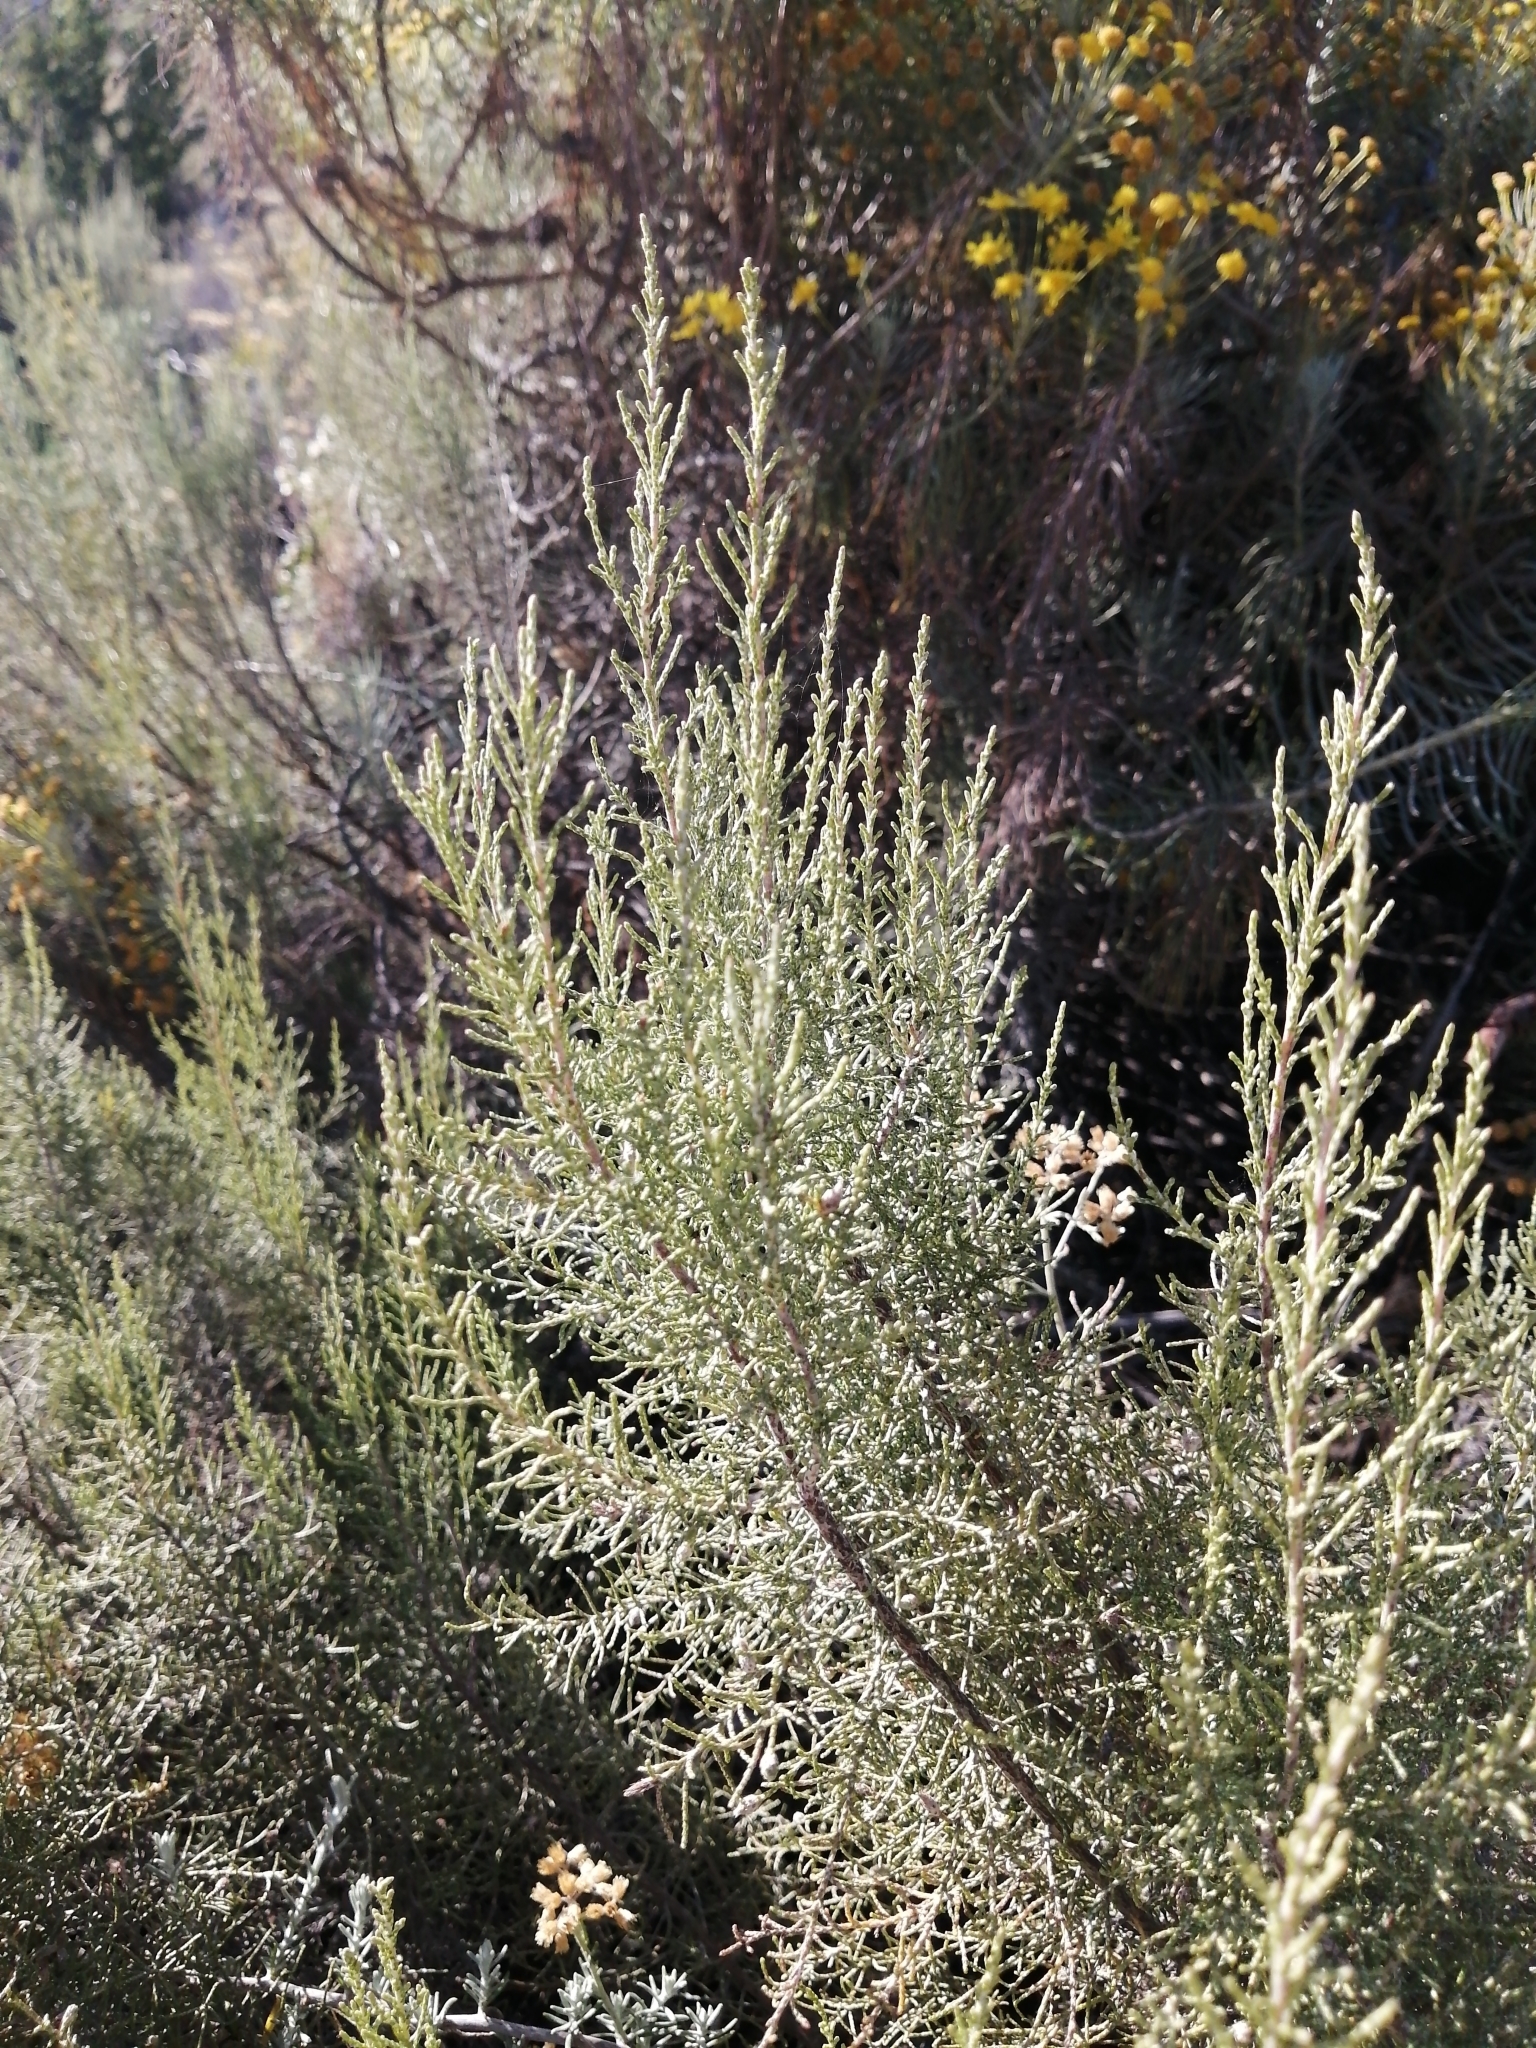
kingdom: Plantae
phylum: Tracheophyta
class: Magnoliopsida
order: Asterales
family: Asteraceae
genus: Dicerothamnus
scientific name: Dicerothamnus rhinocerotis
